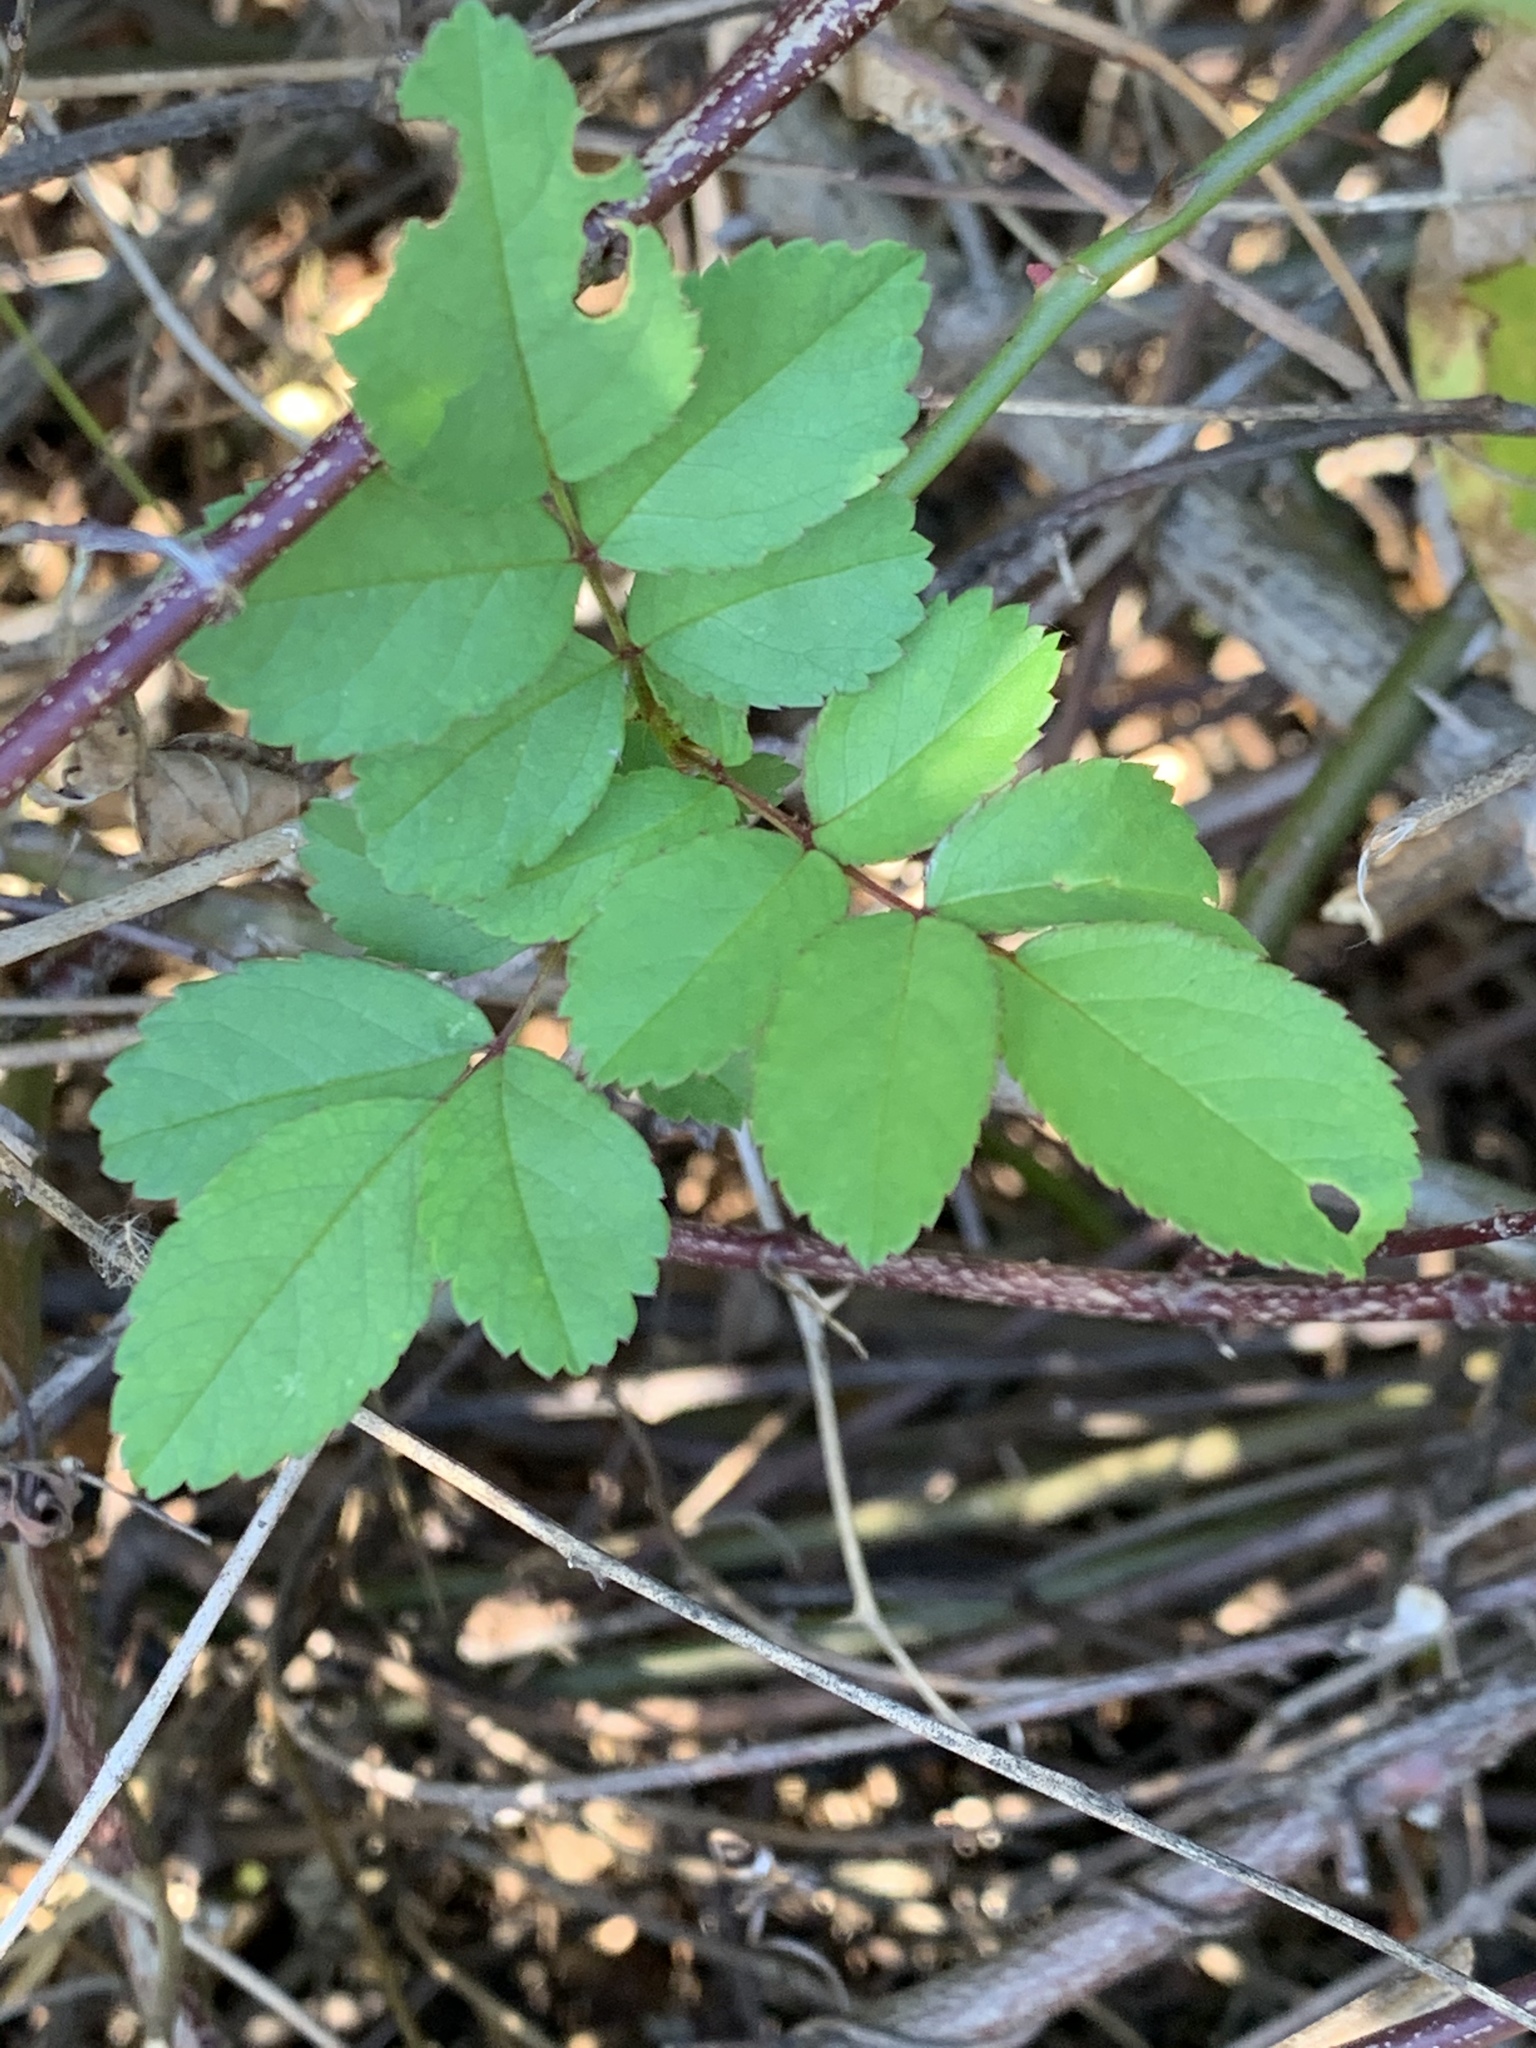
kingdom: Plantae
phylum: Tracheophyta
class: Magnoliopsida
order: Rosales
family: Rosaceae
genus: Rosa
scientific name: Rosa multiflora
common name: Multiflora rose
